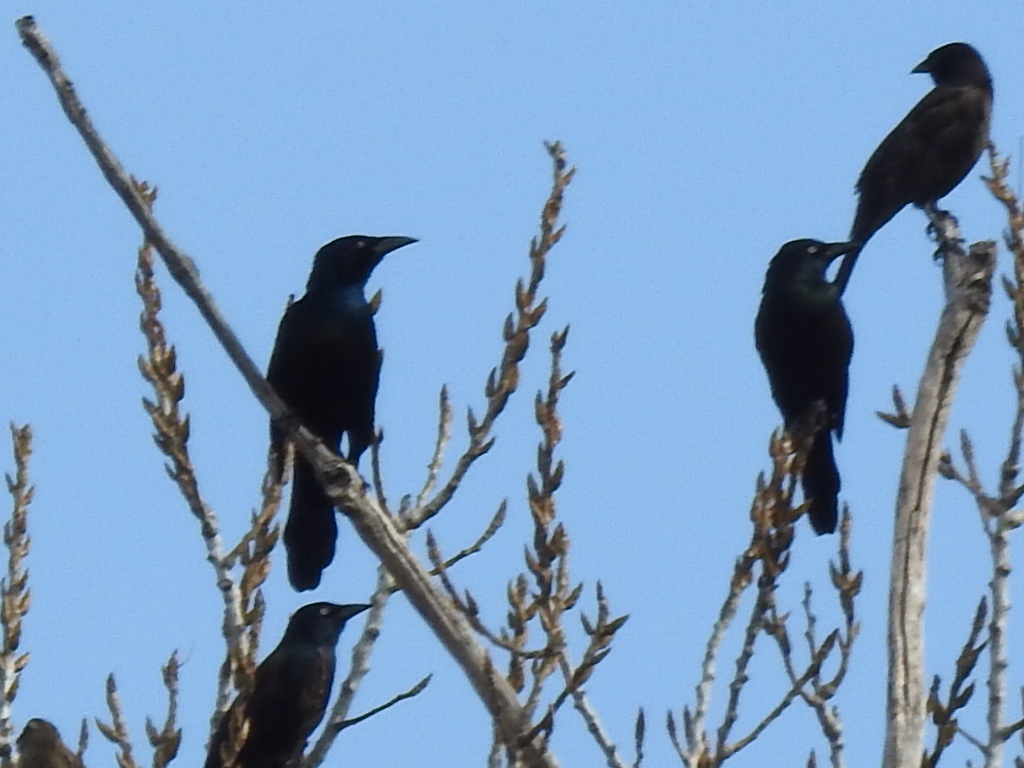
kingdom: Animalia
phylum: Chordata
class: Aves
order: Passeriformes
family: Icteridae
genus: Quiscalus
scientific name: Quiscalus quiscula
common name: Common grackle
